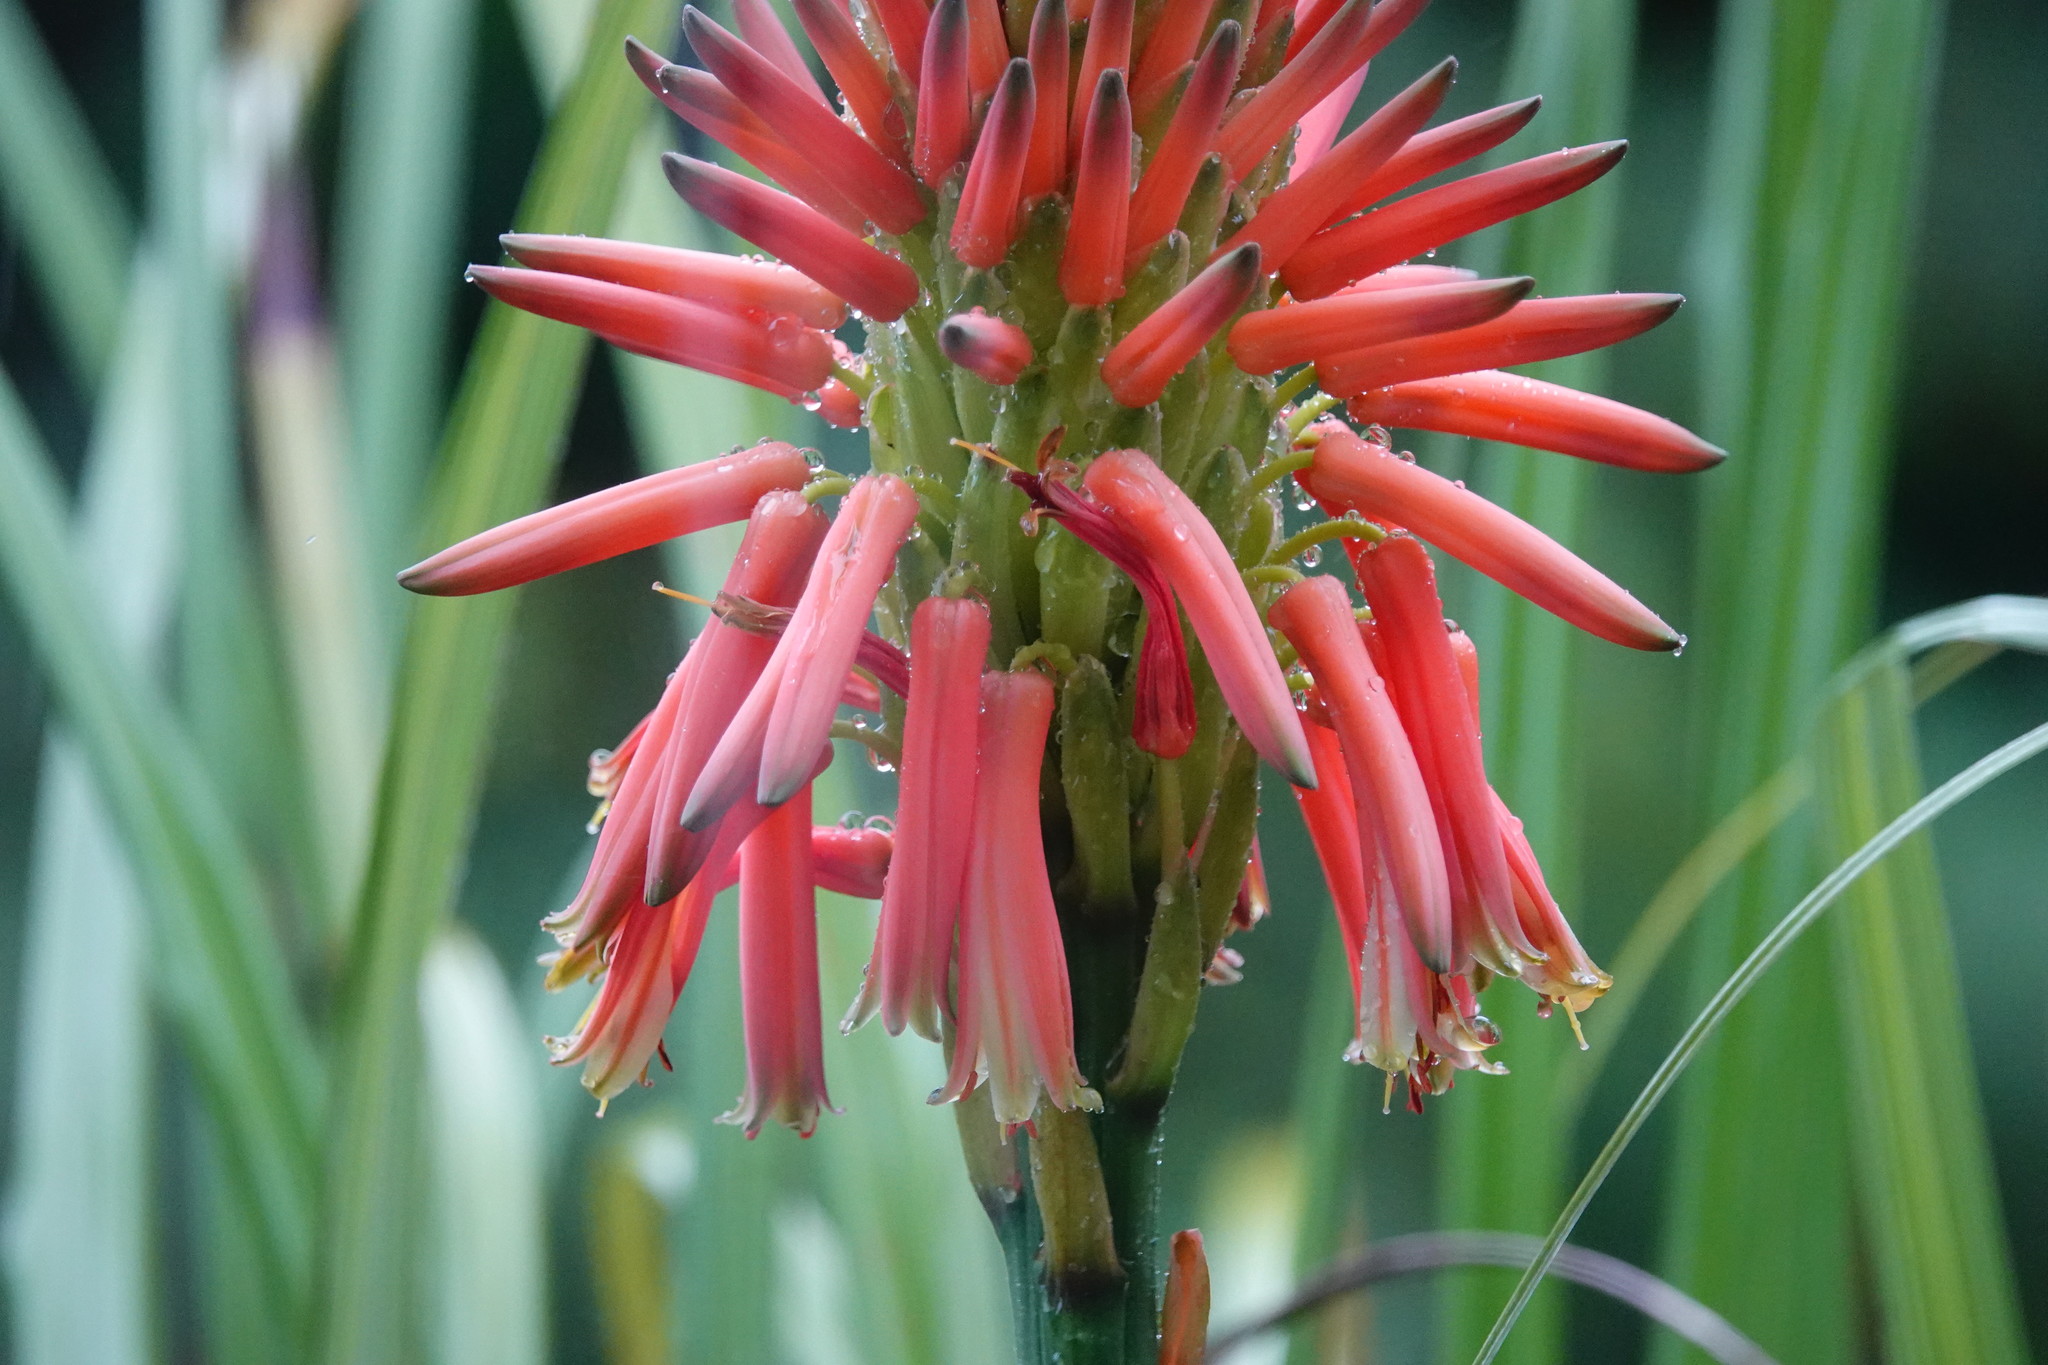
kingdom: Plantae
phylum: Tracheophyta
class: Liliopsida
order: Asparagales
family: Asphodelaceae
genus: Aloe
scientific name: Aloe arborescens
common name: Candelabra aloe
